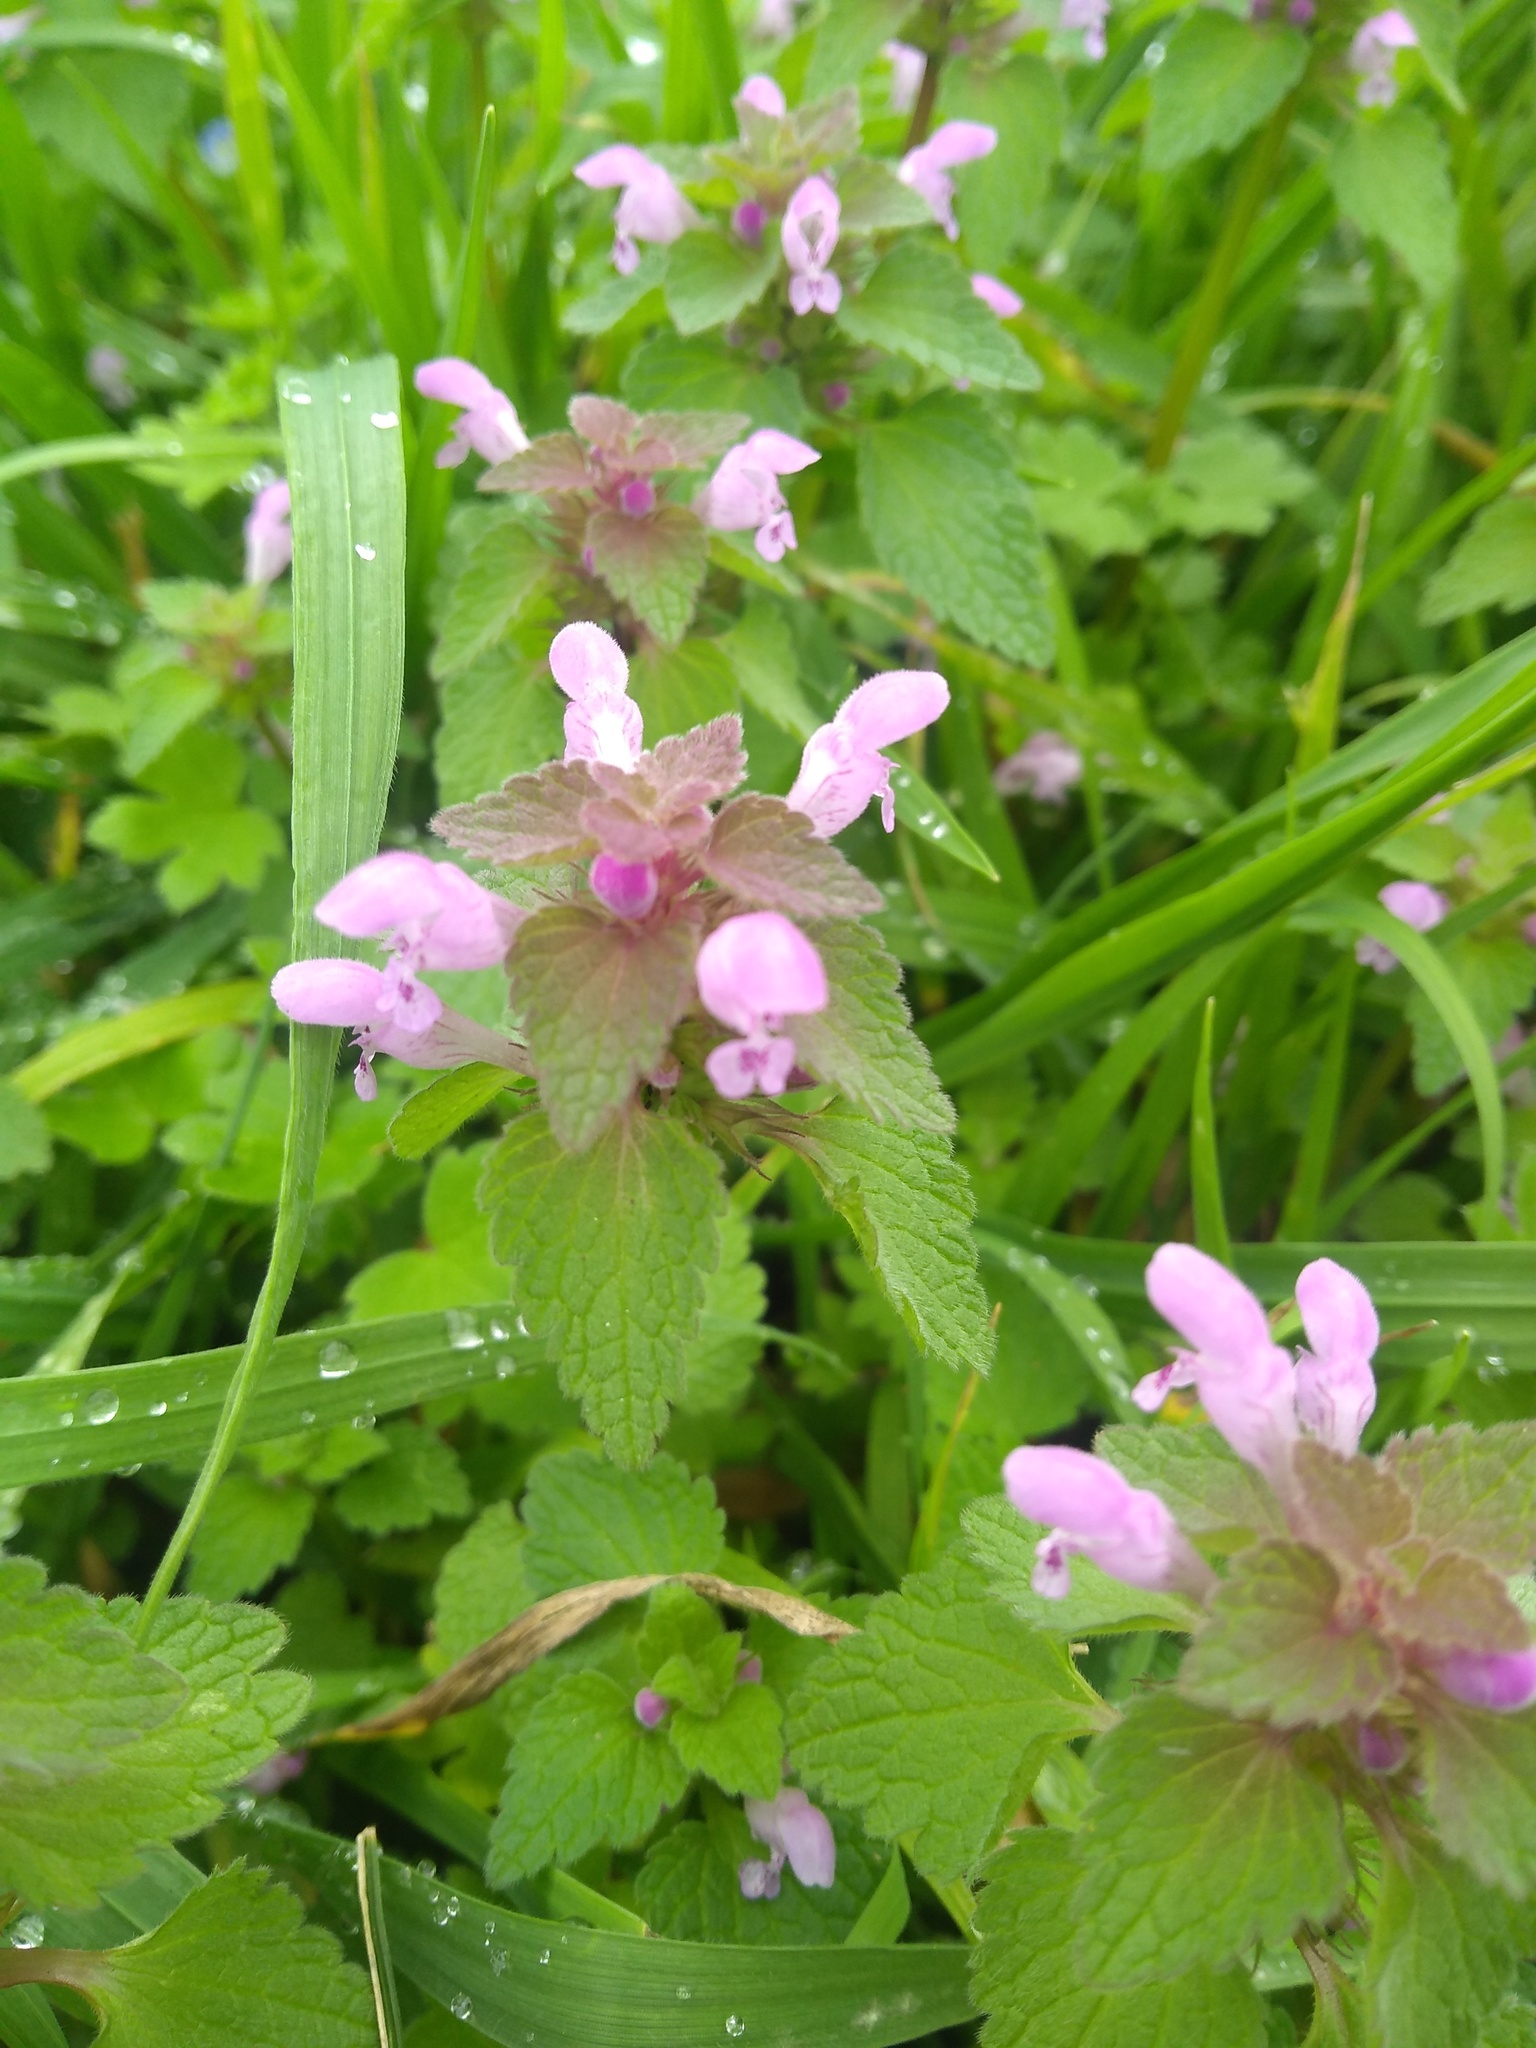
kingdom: Plantae
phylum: Tracheophyta
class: Magnoliopsida
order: Lamiales
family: Lamiaceae
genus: Lamium
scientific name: Lamium purpureum
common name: Red dead-nettle
